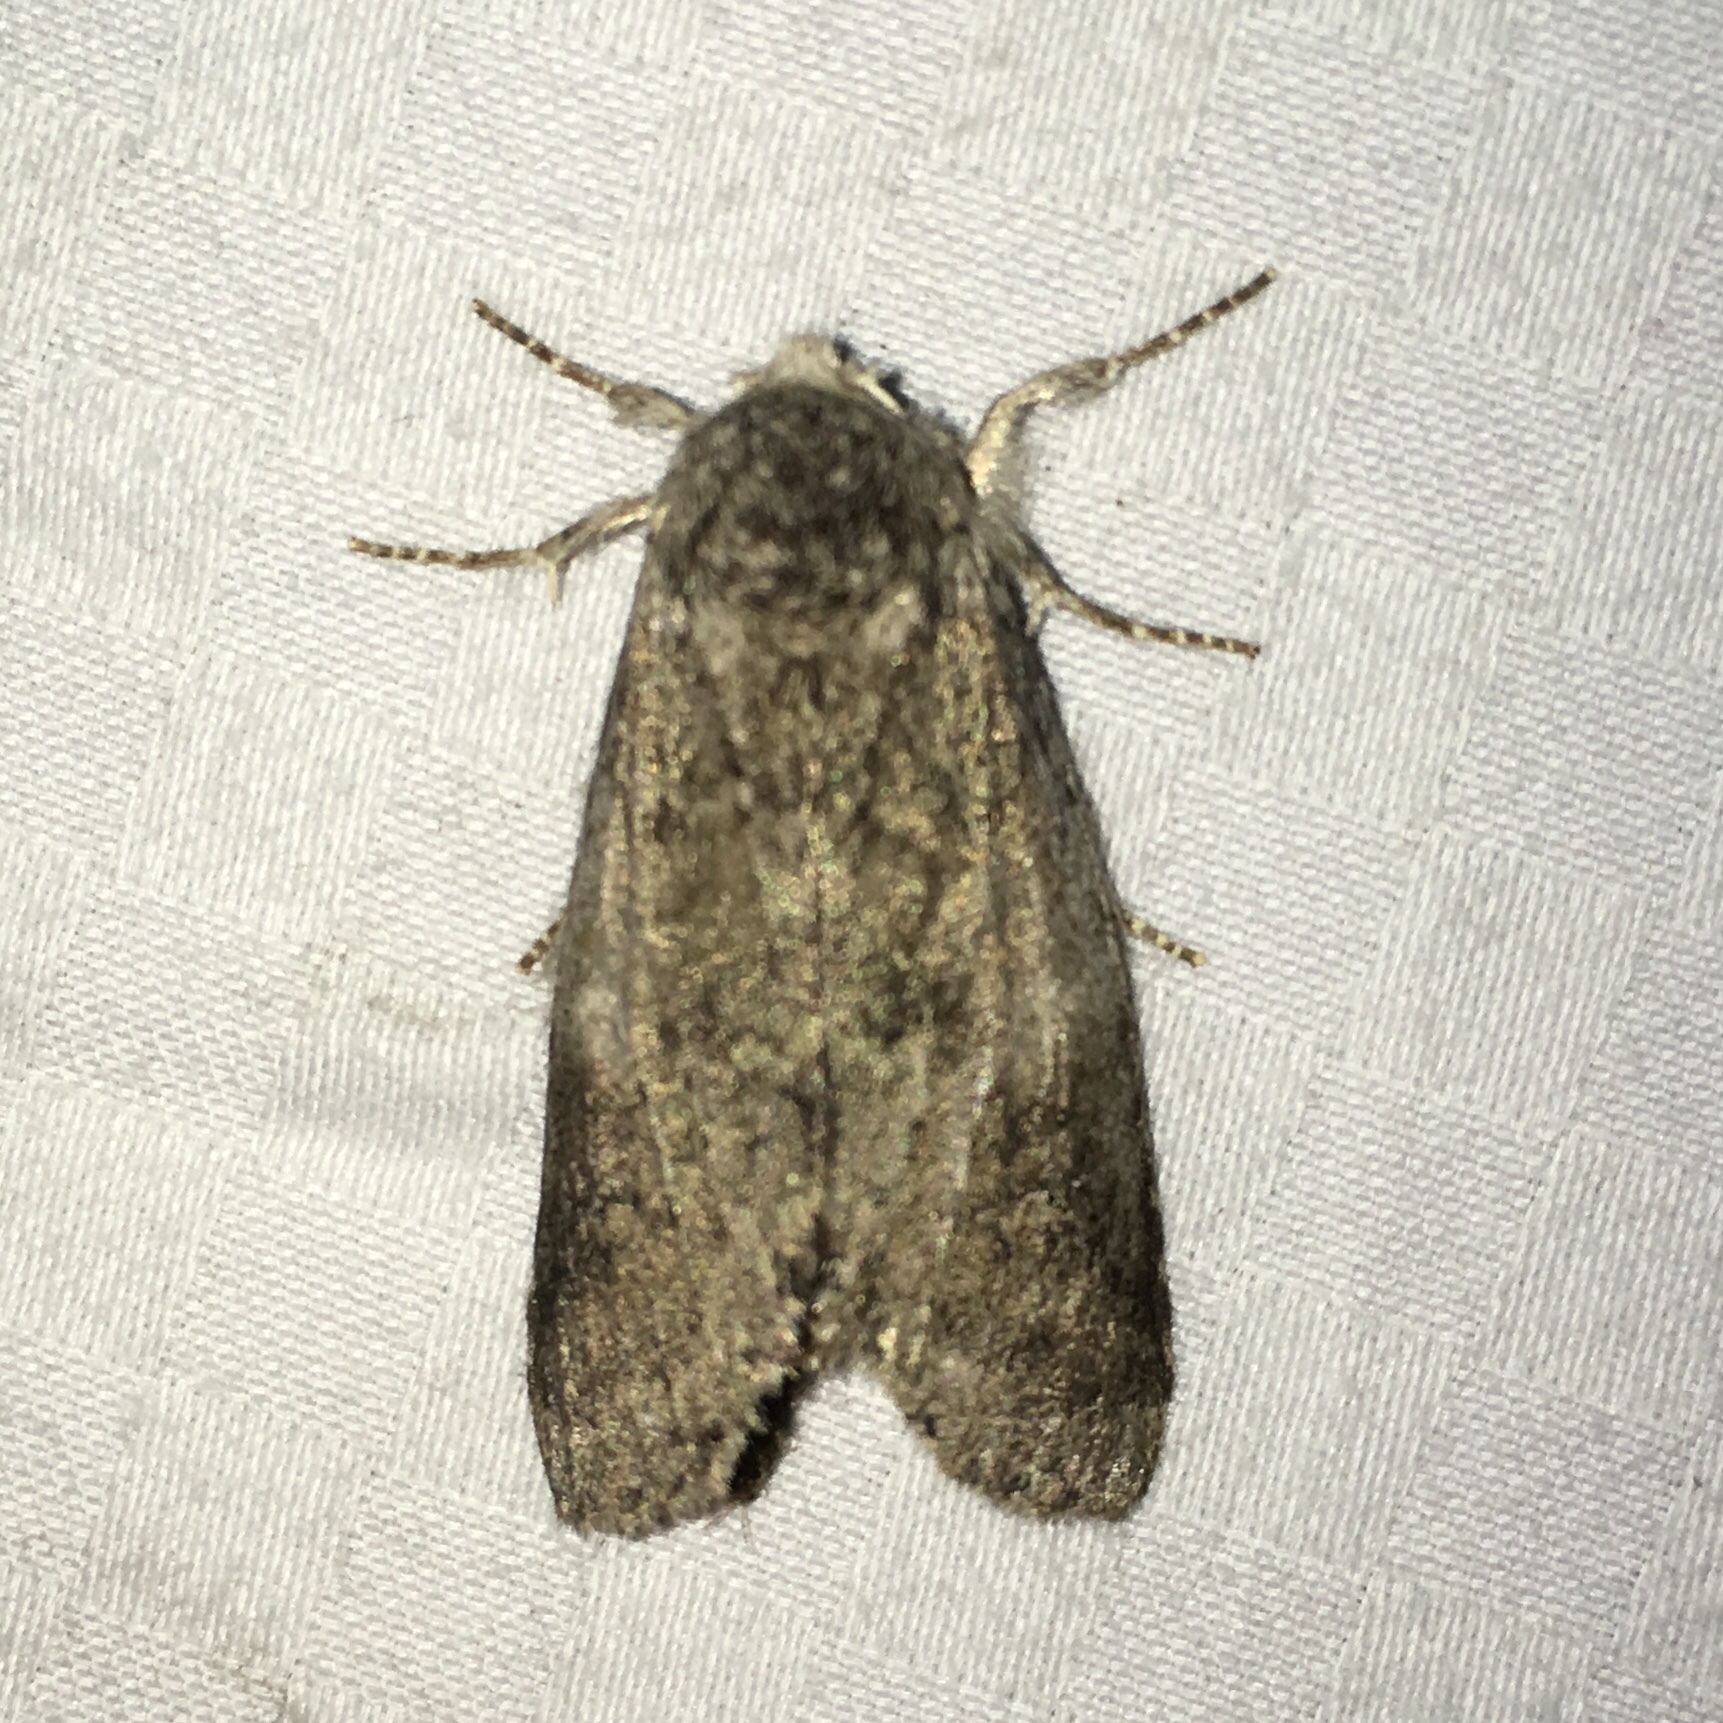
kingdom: Animalia
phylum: Arthropoda
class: Insecta
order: Lepidoptera
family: Notodontidae
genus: Lochmaeus
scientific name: Lochmaeus manteo
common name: Variable oakleaf caterpillar moth
